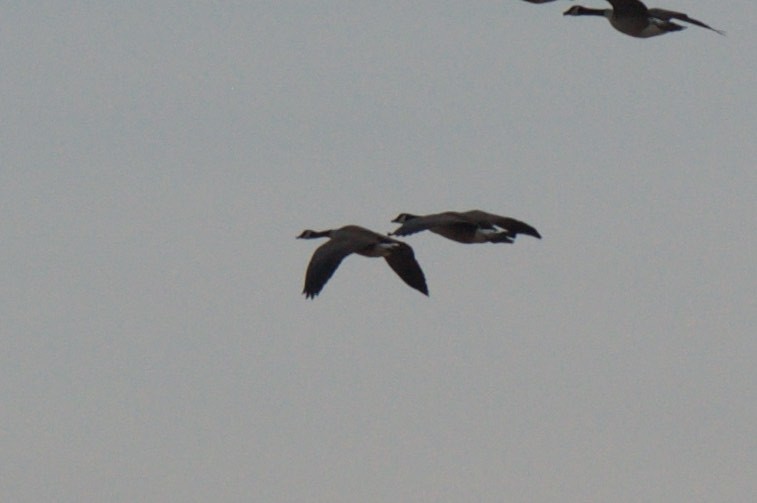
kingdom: Animalia
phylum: Chordata
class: Aves
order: Anseriformes
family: Anatidae
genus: Branta
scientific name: Branta canadensis
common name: Canada goose
